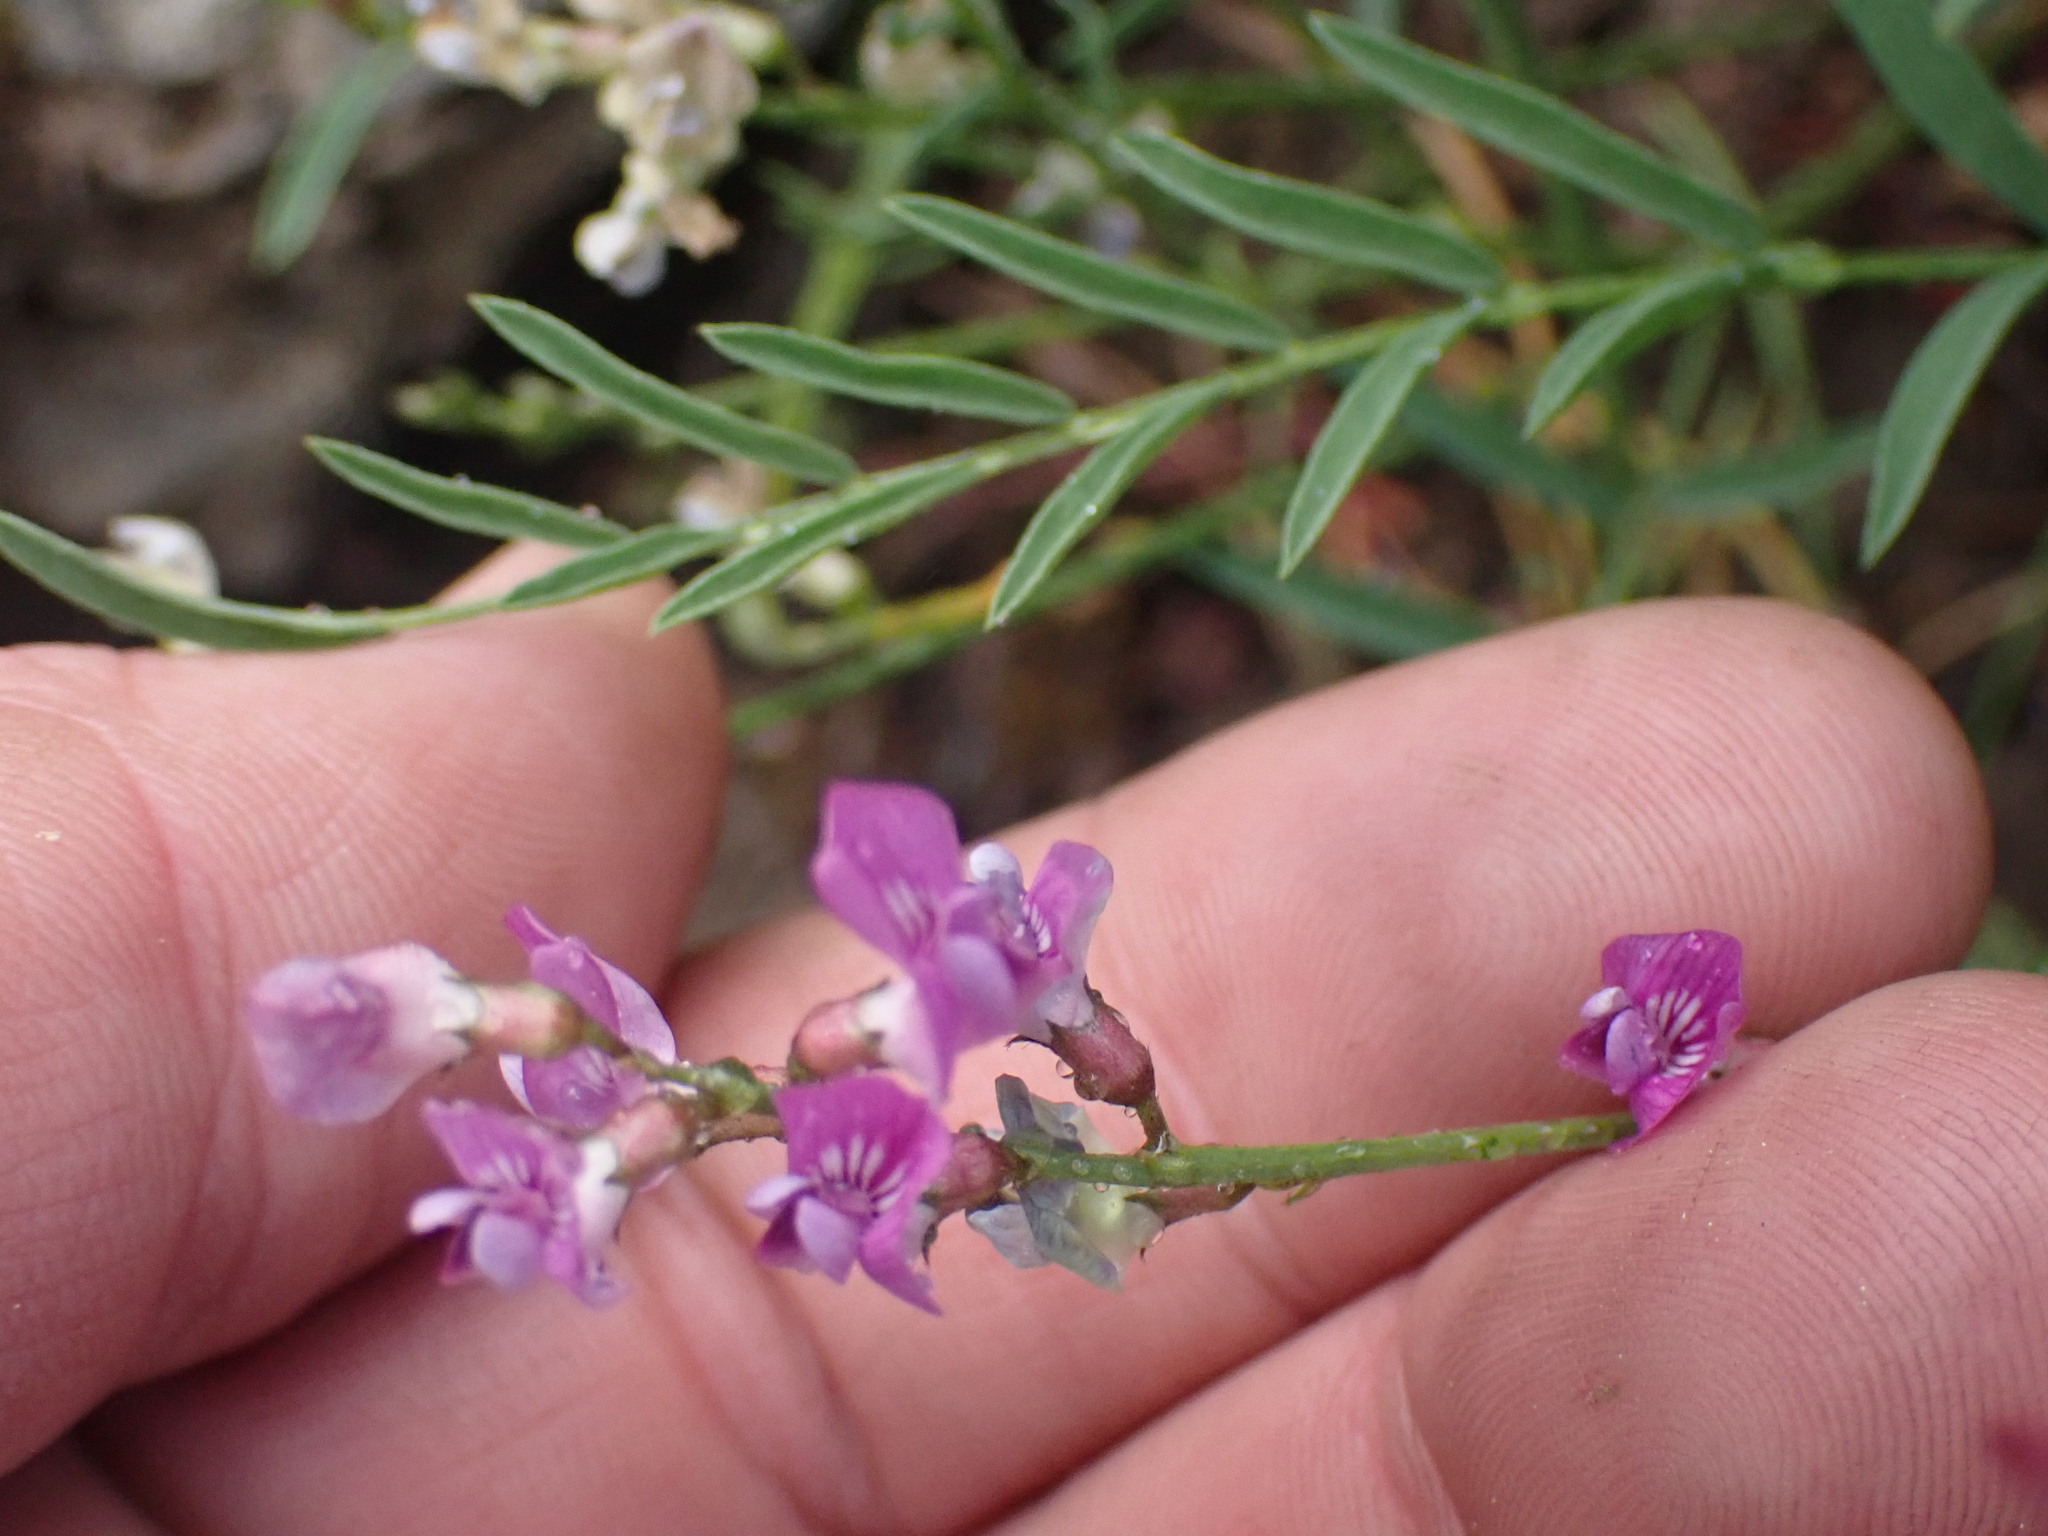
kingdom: Plantae
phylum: Tracheophyta
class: Magnoliopsida
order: Fabales
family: Fabaceae
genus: Astragalus
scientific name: Astragalus miser
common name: Timber milkvetch
